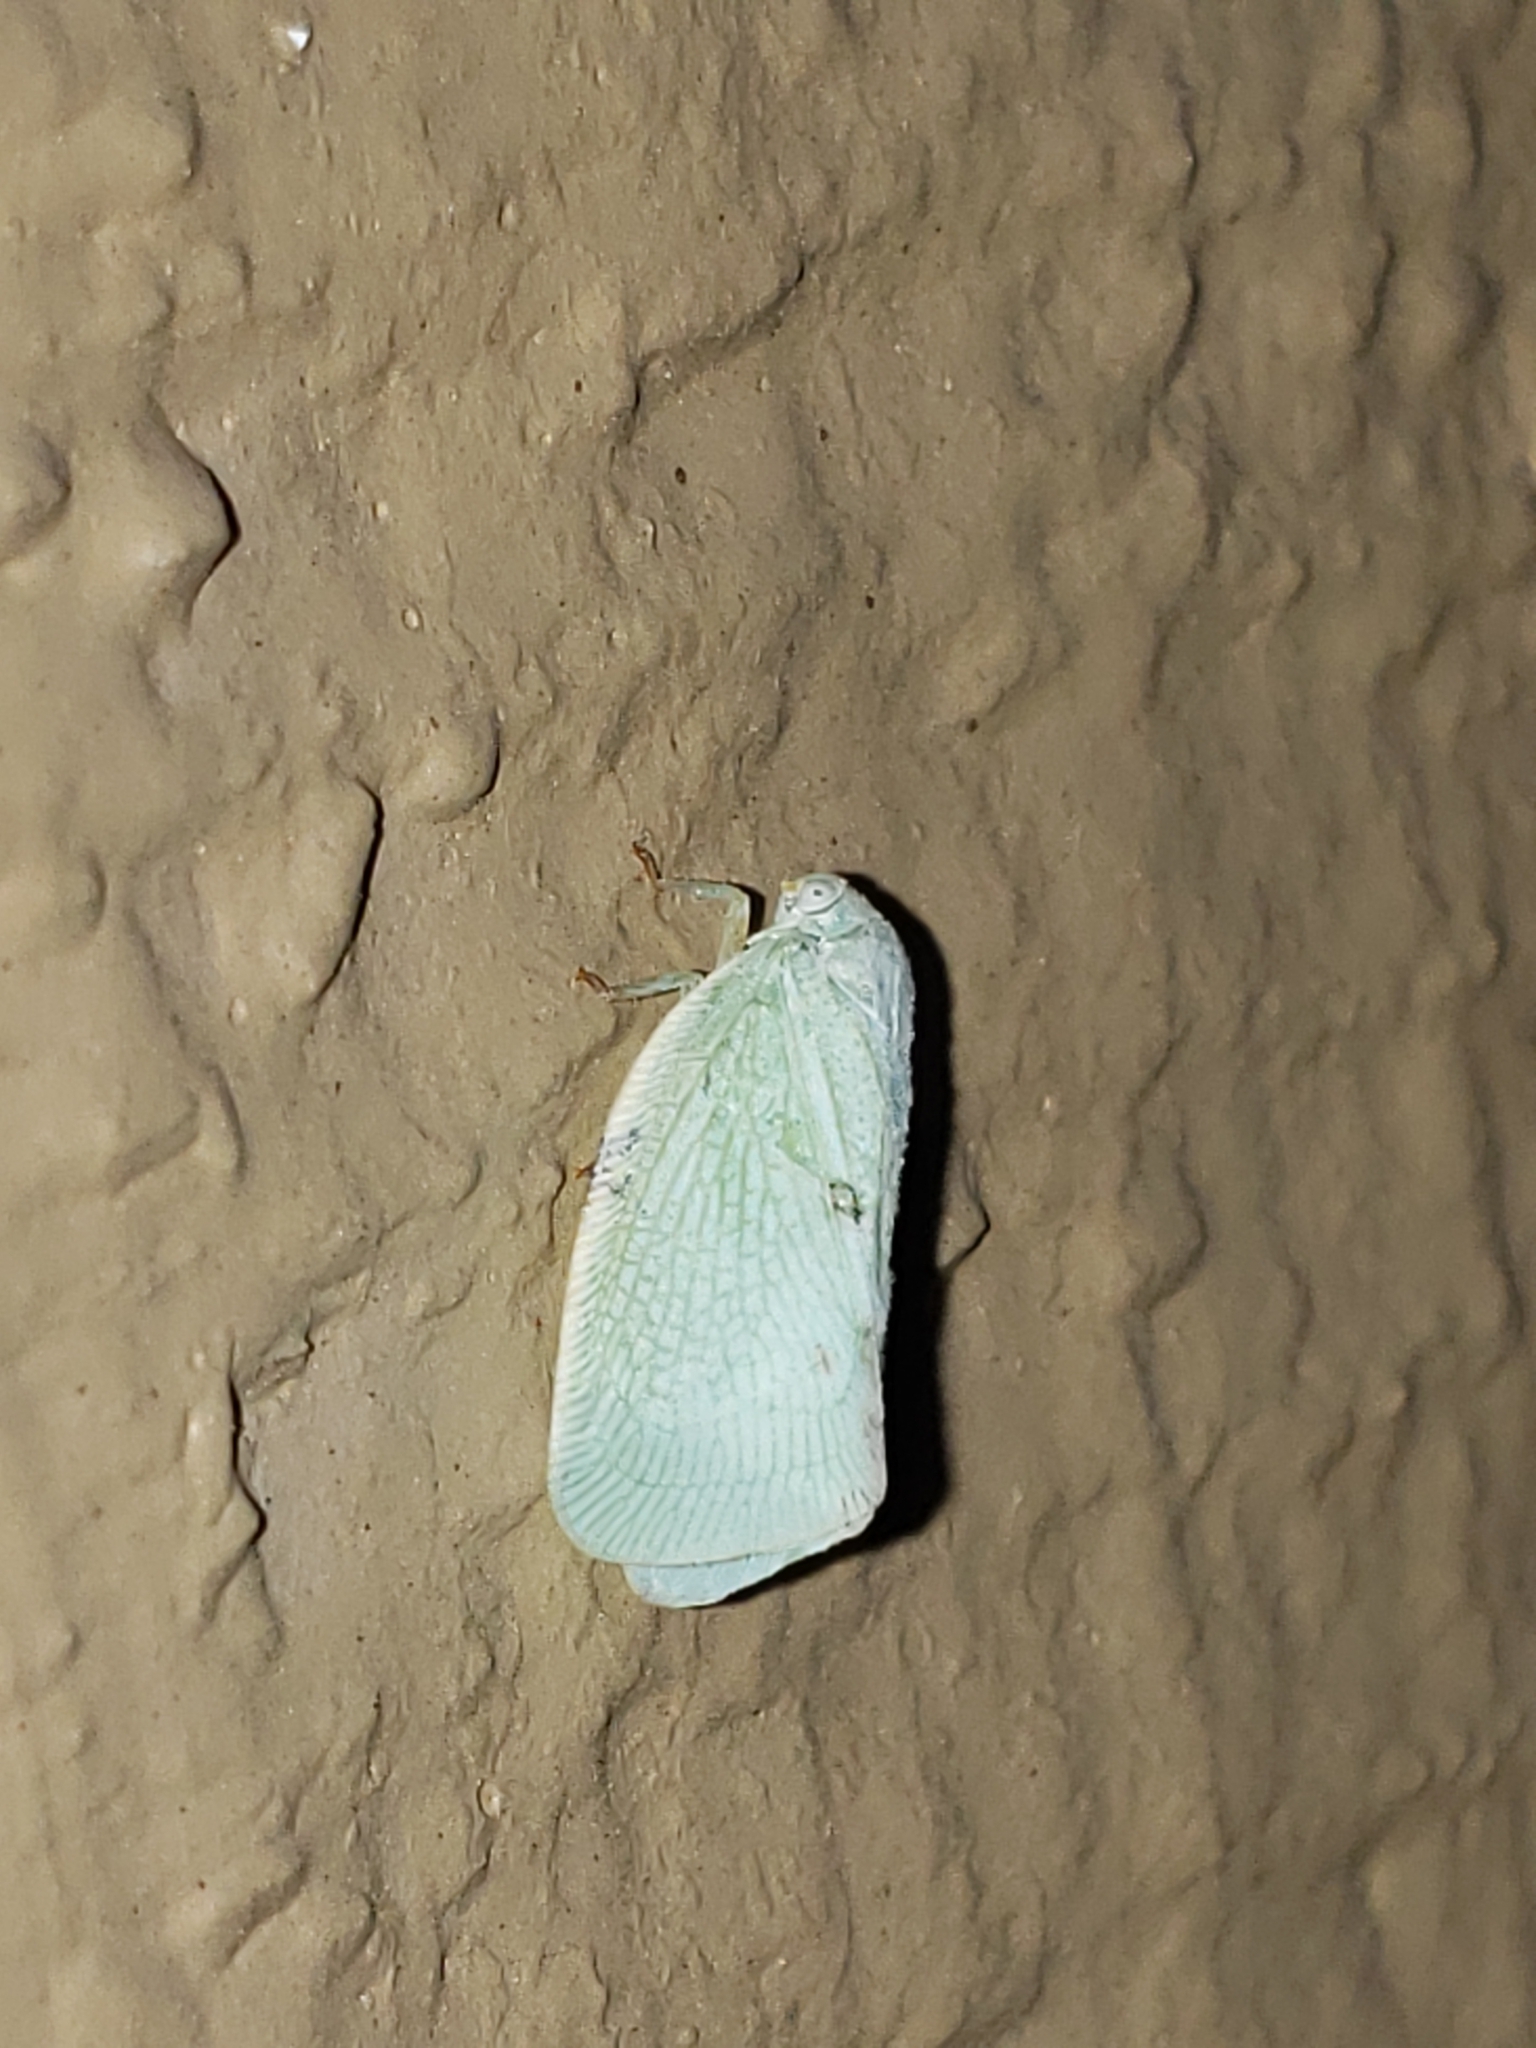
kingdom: Animalia
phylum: Arthropoda
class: Insecta
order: Hemiptera
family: Flatidae
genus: Flatormenis
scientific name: Flatormenis proxima
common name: Northern flatid planthopper
